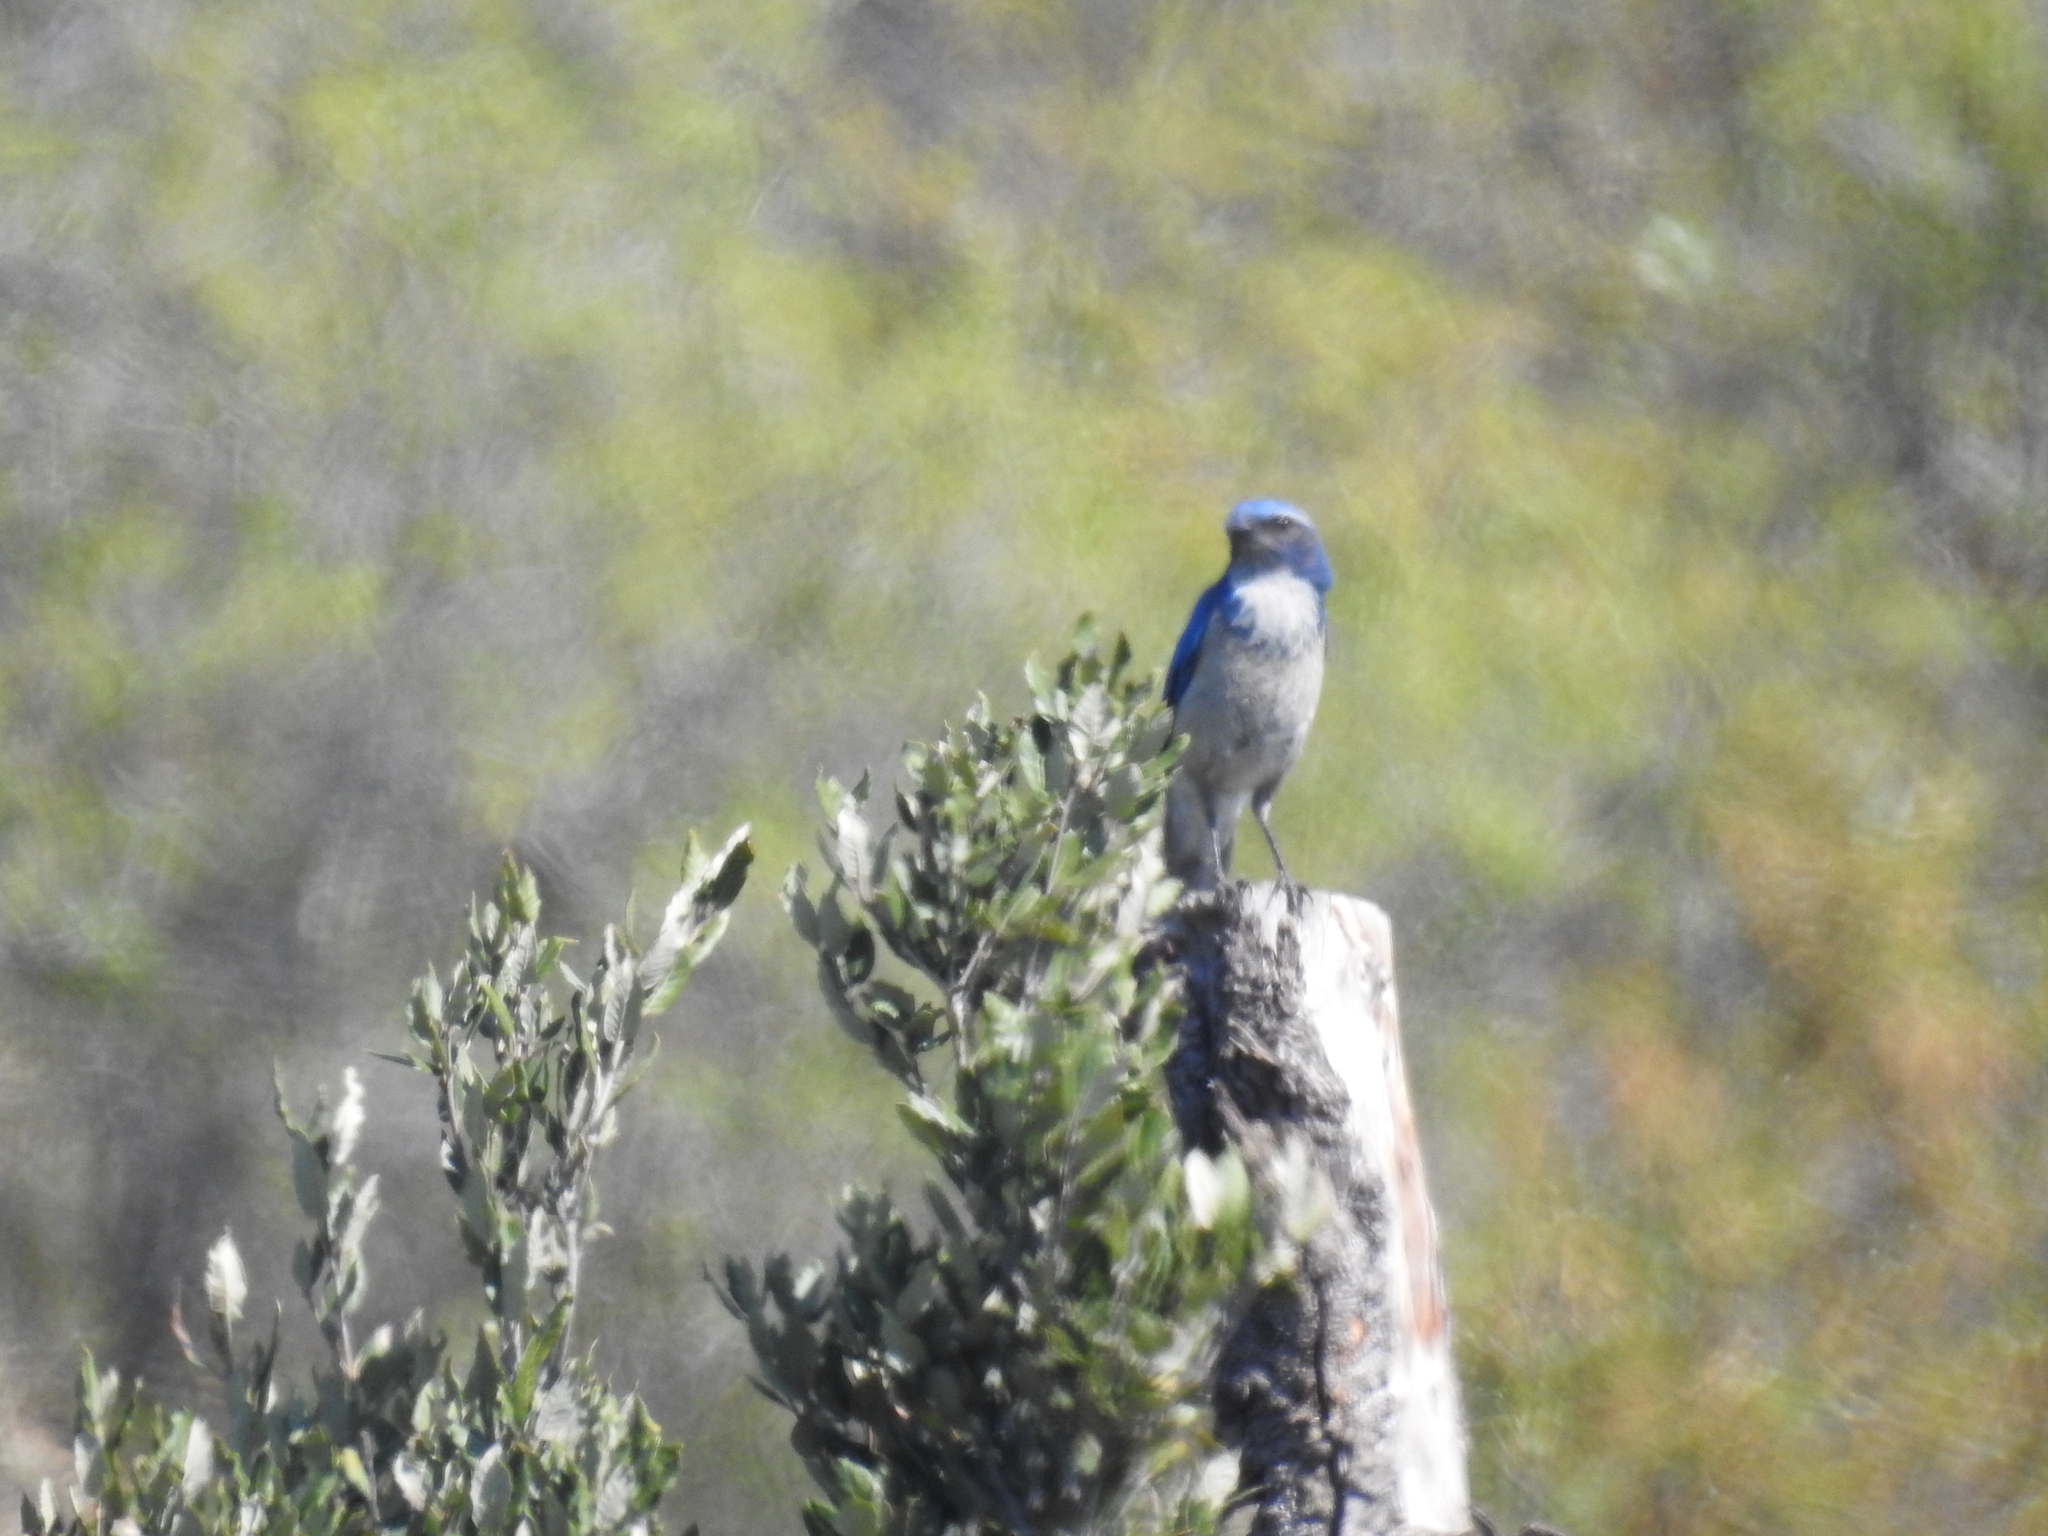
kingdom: Animalia
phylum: Chordata
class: Aves
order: Passeriformes
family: Corvidae
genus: Aphelocoma
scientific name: Aphelocoma californica
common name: California scrub-jay
